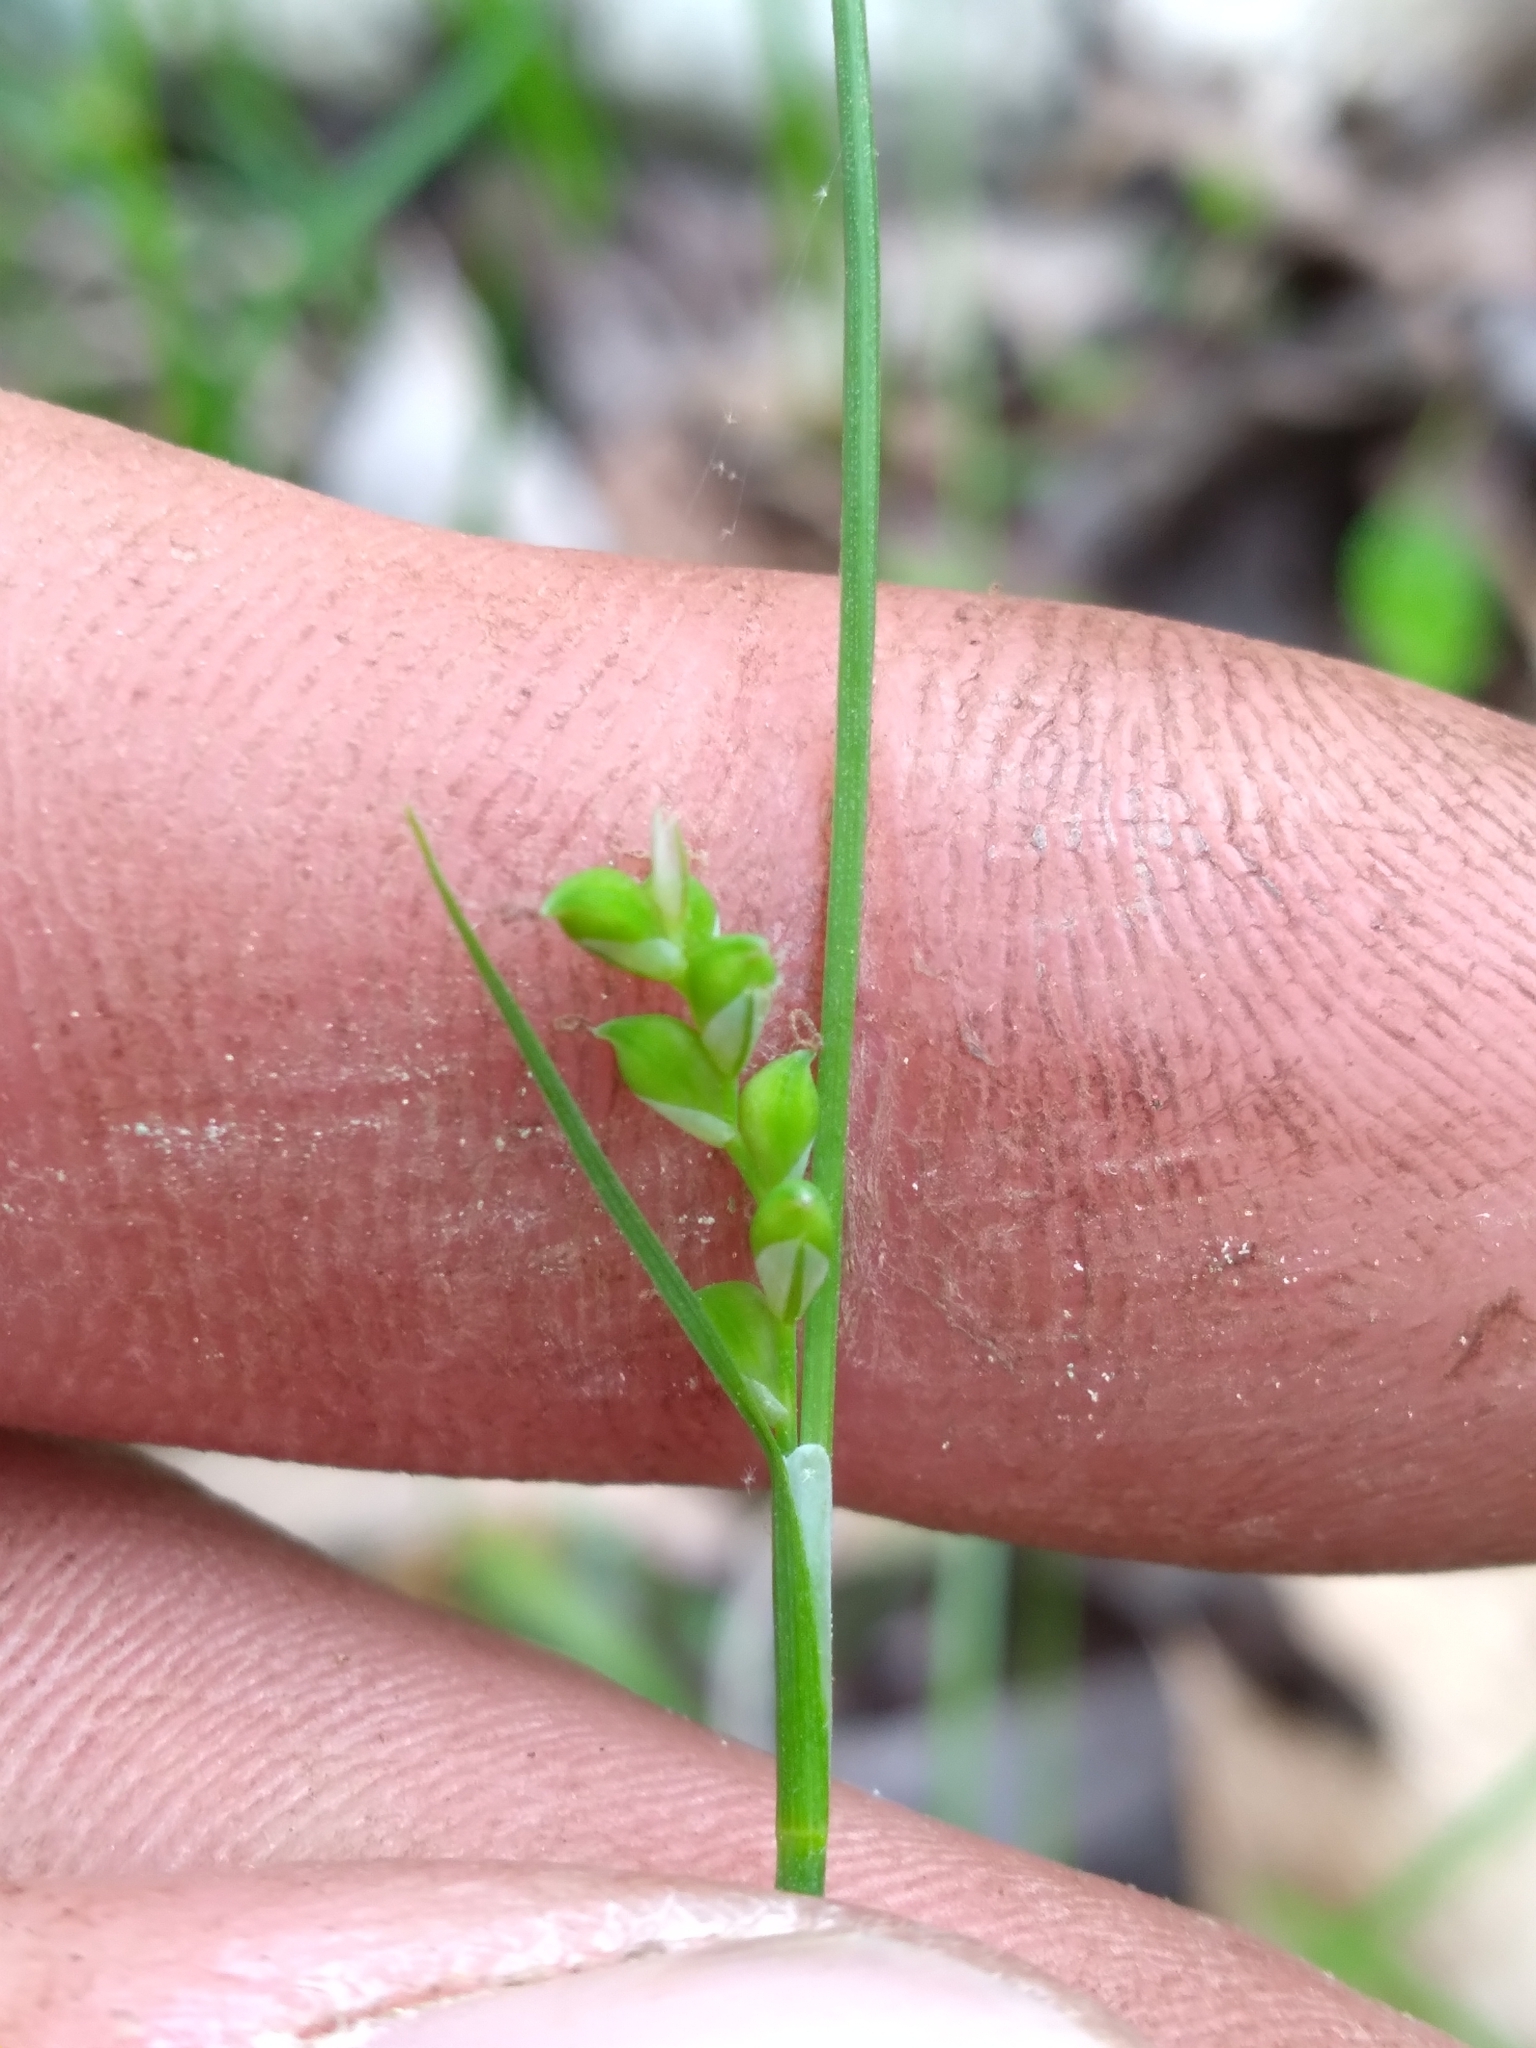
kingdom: Plantae
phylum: Tracheophyta
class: Liliopsida
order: Poales
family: Cyperaceae
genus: Carex
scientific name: Carex
